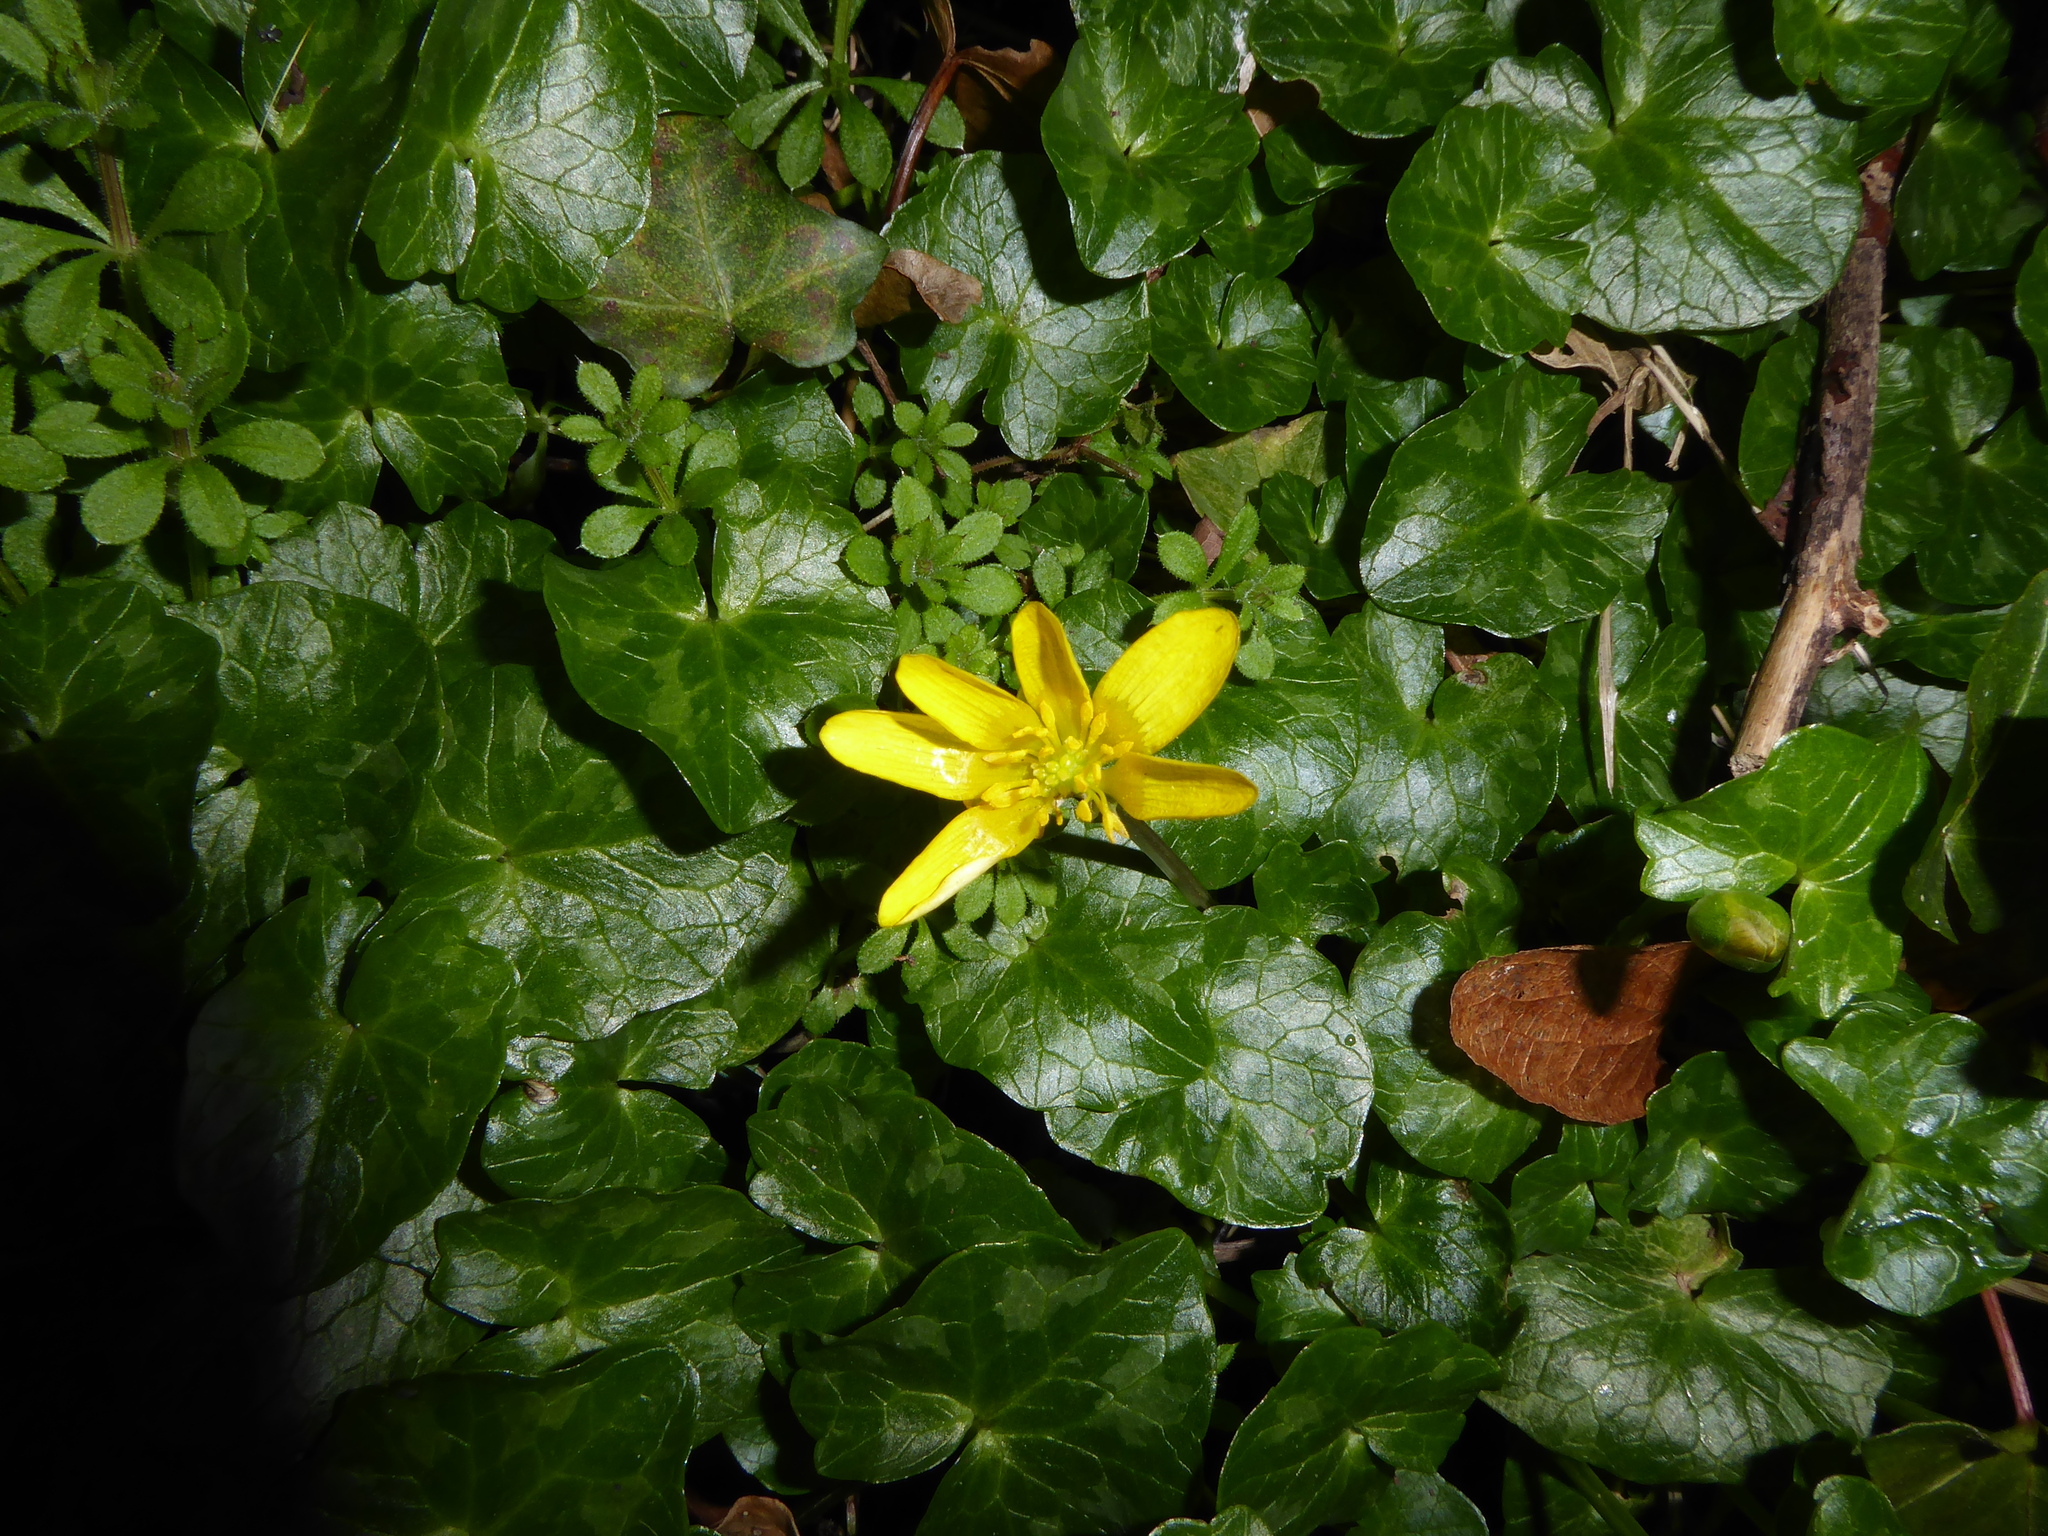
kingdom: Plantae
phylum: Tracheophyta
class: Magnoliopsida
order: Ranunculales
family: Ranunculaceae
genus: Ficaria
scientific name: Ficaria verna
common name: Lesser celandine
